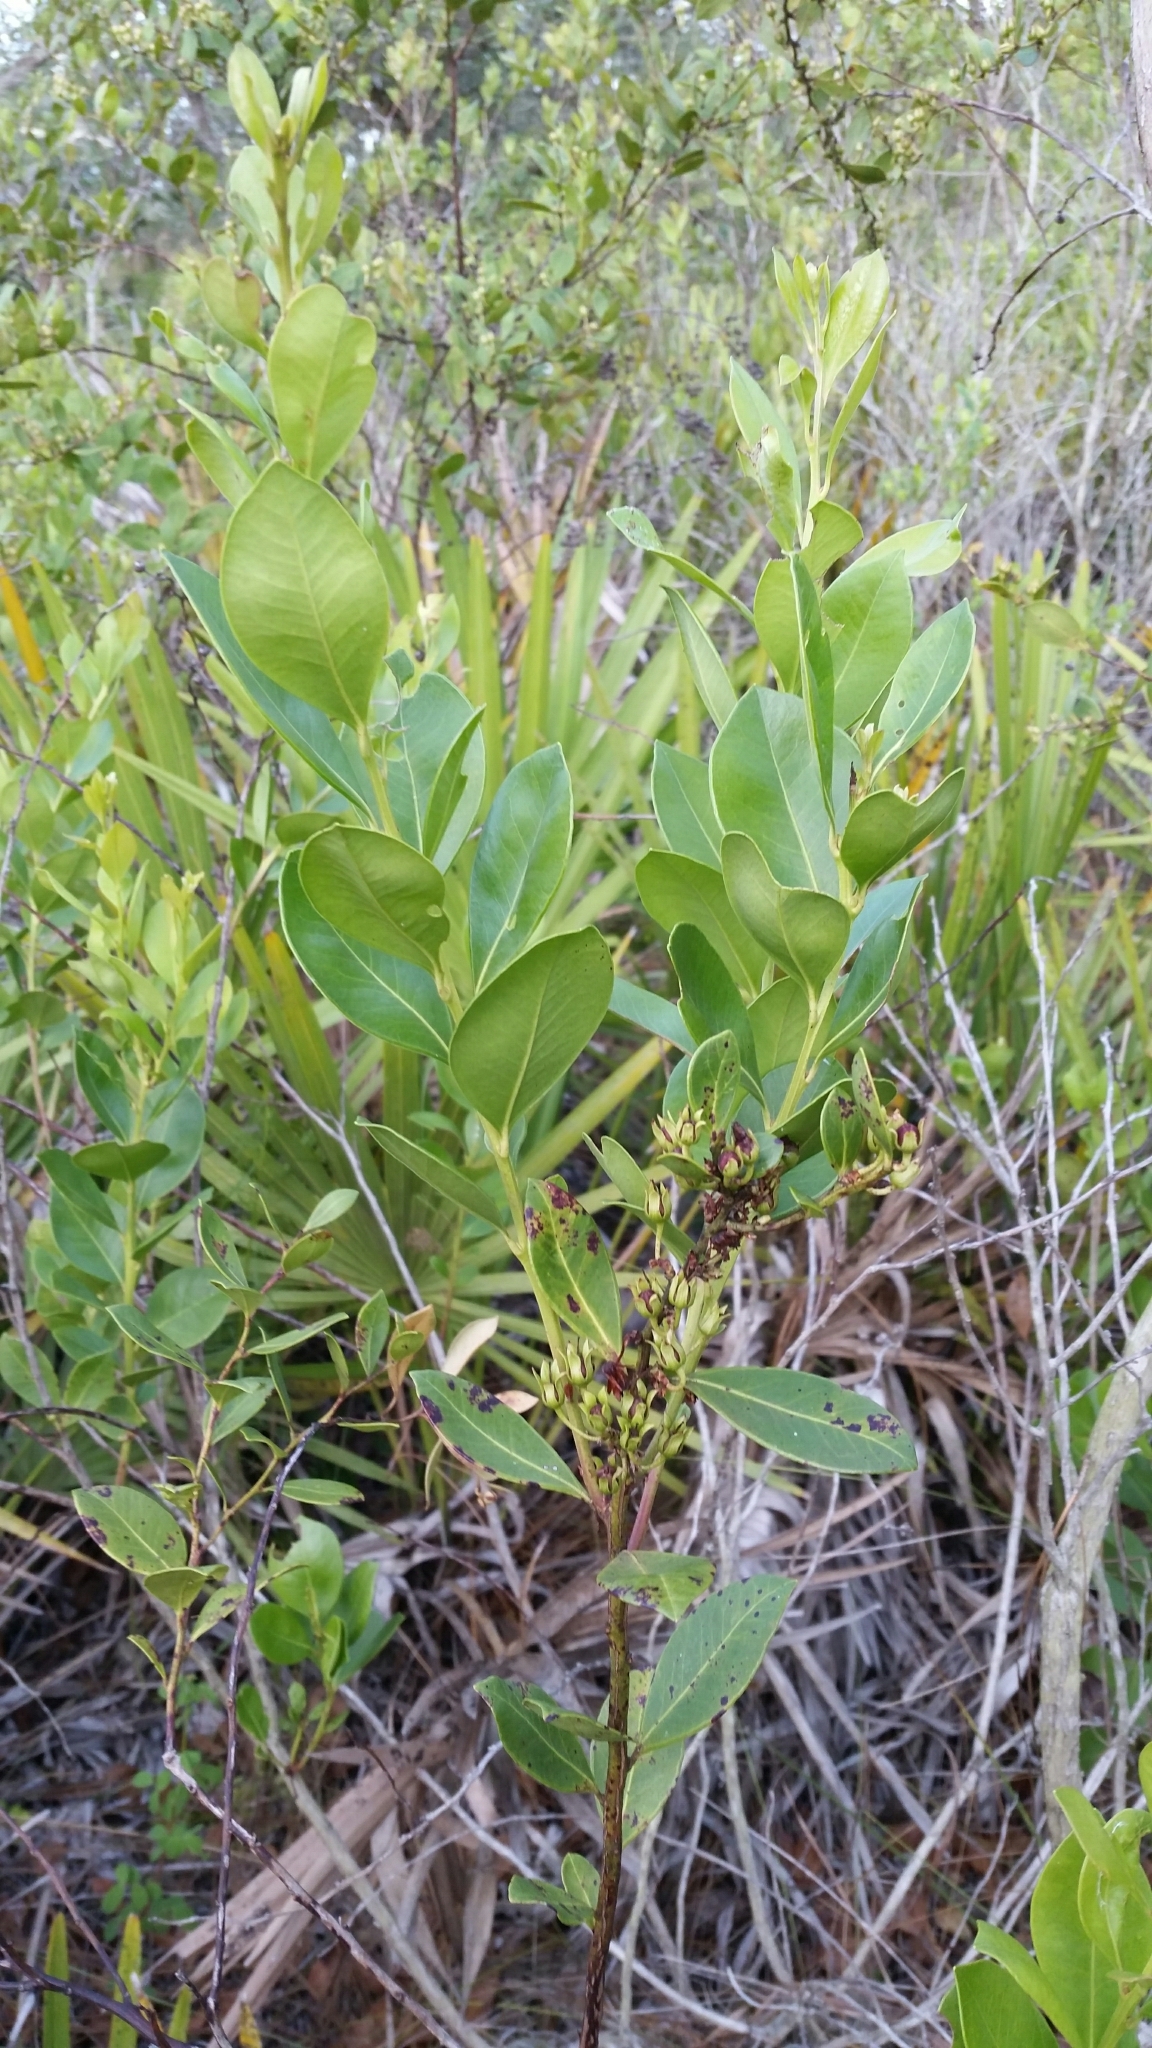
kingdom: Plantae
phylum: Tracheophyta
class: Magnoliopsida
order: Ericales
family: Ericaceae
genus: Lyonia
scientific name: Lyonia lucida
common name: Fetterbush
